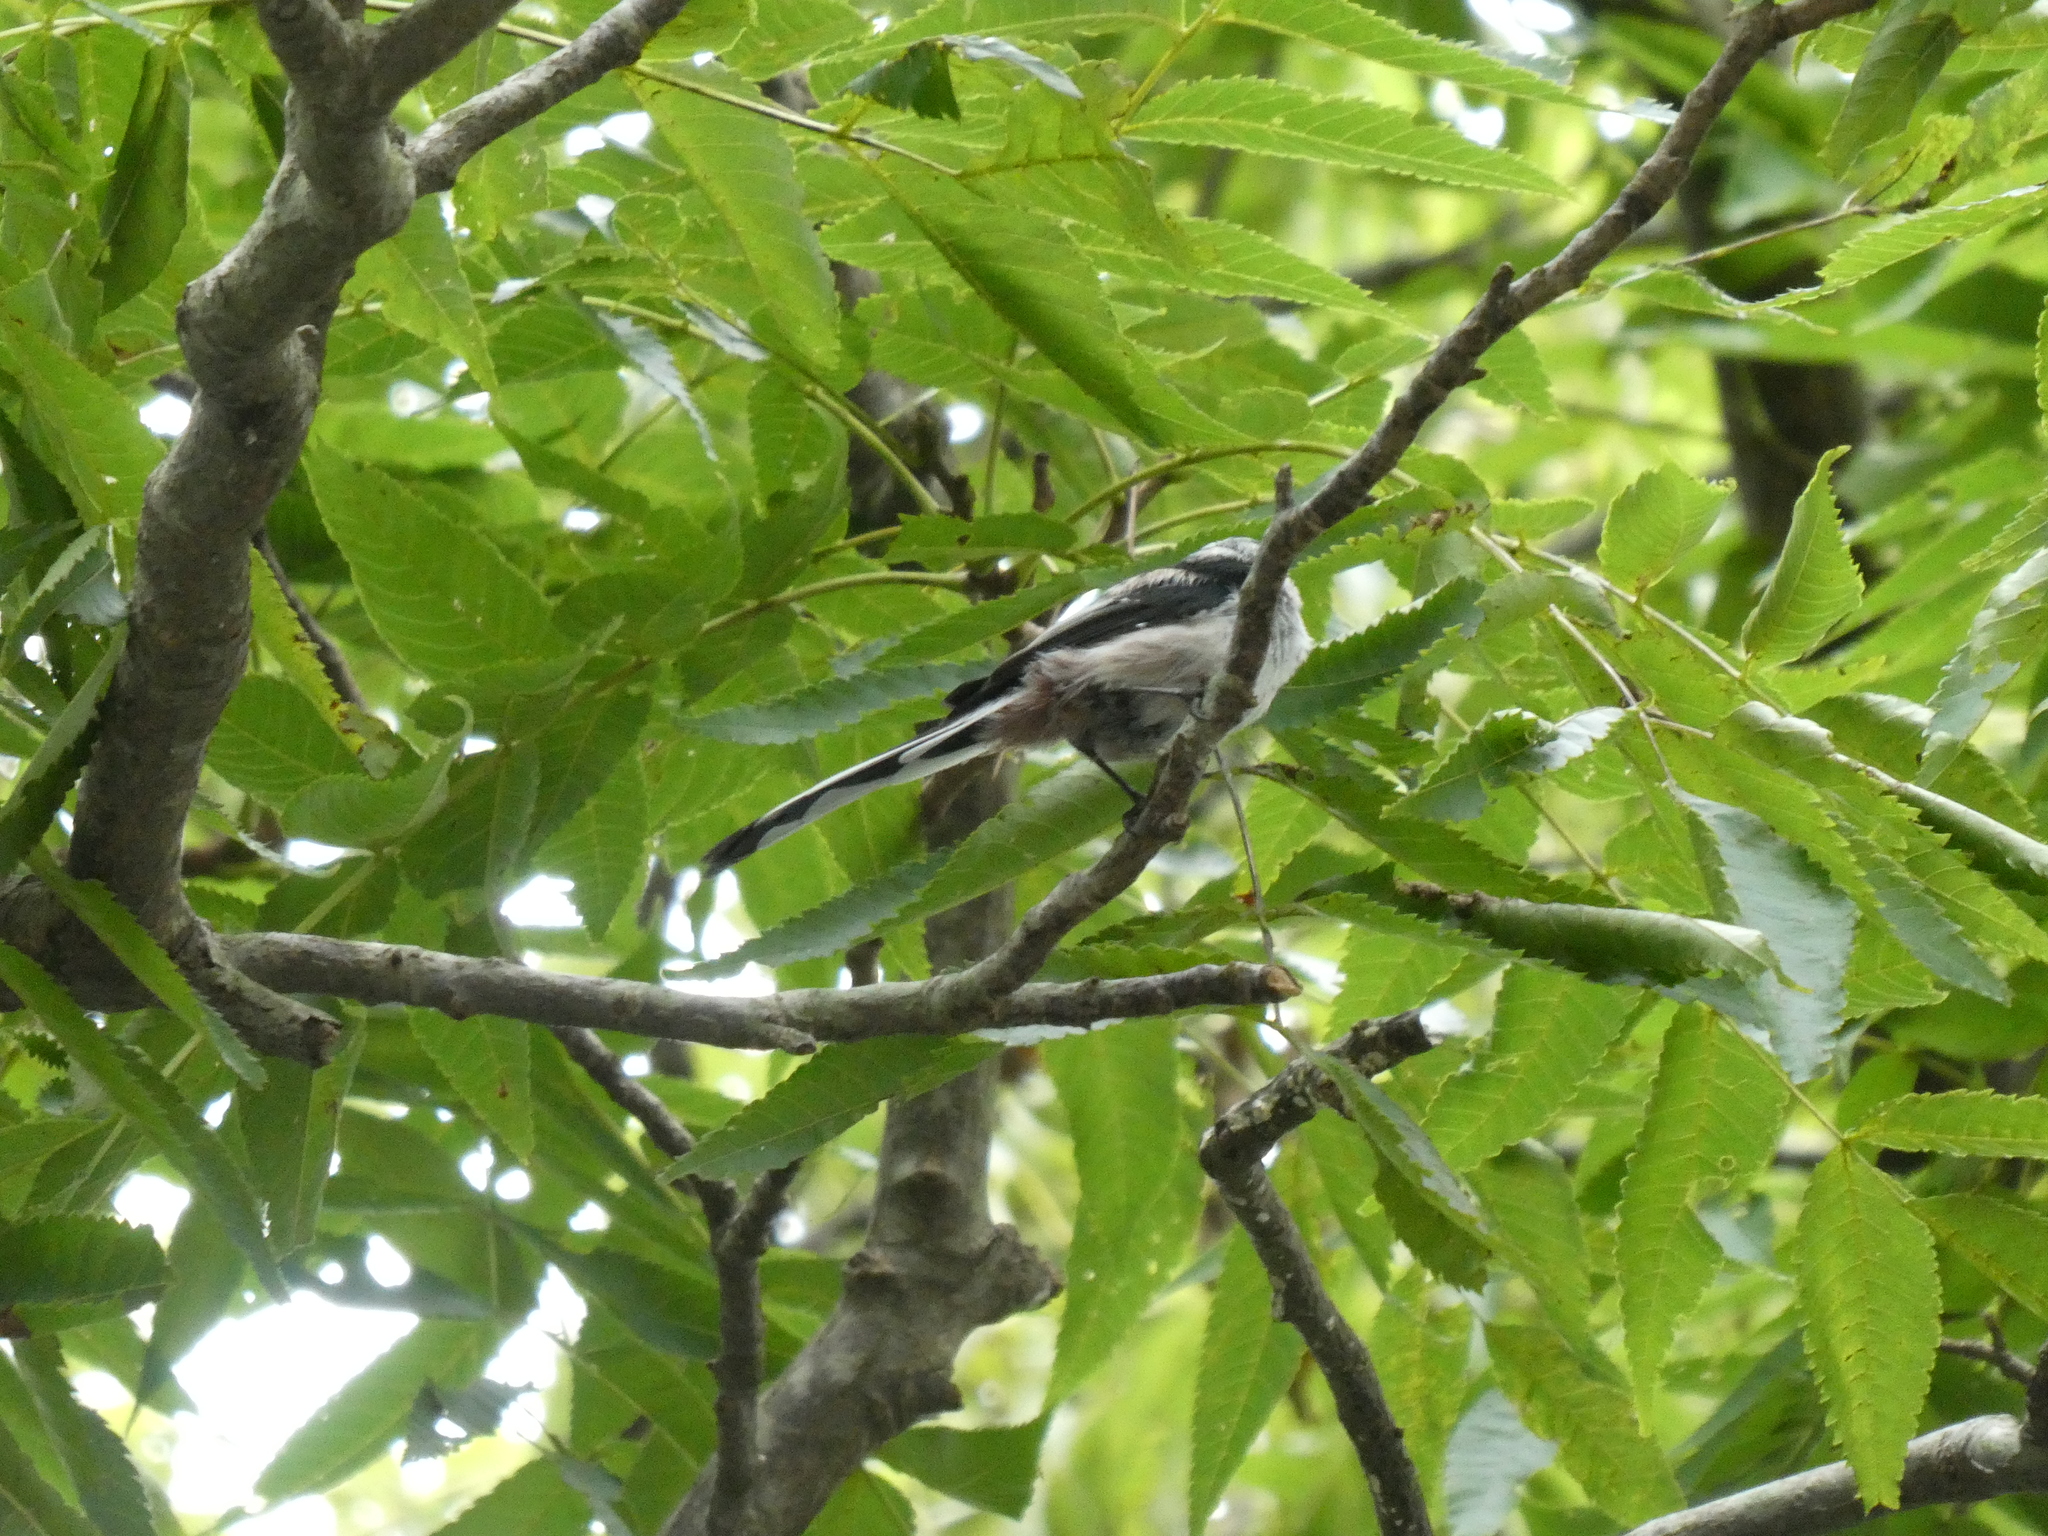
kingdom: Animalia
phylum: Chordata
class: Aves
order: Passeriformes
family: Aegithalidae
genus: Aegithalos
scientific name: Aegithalos caudatus
